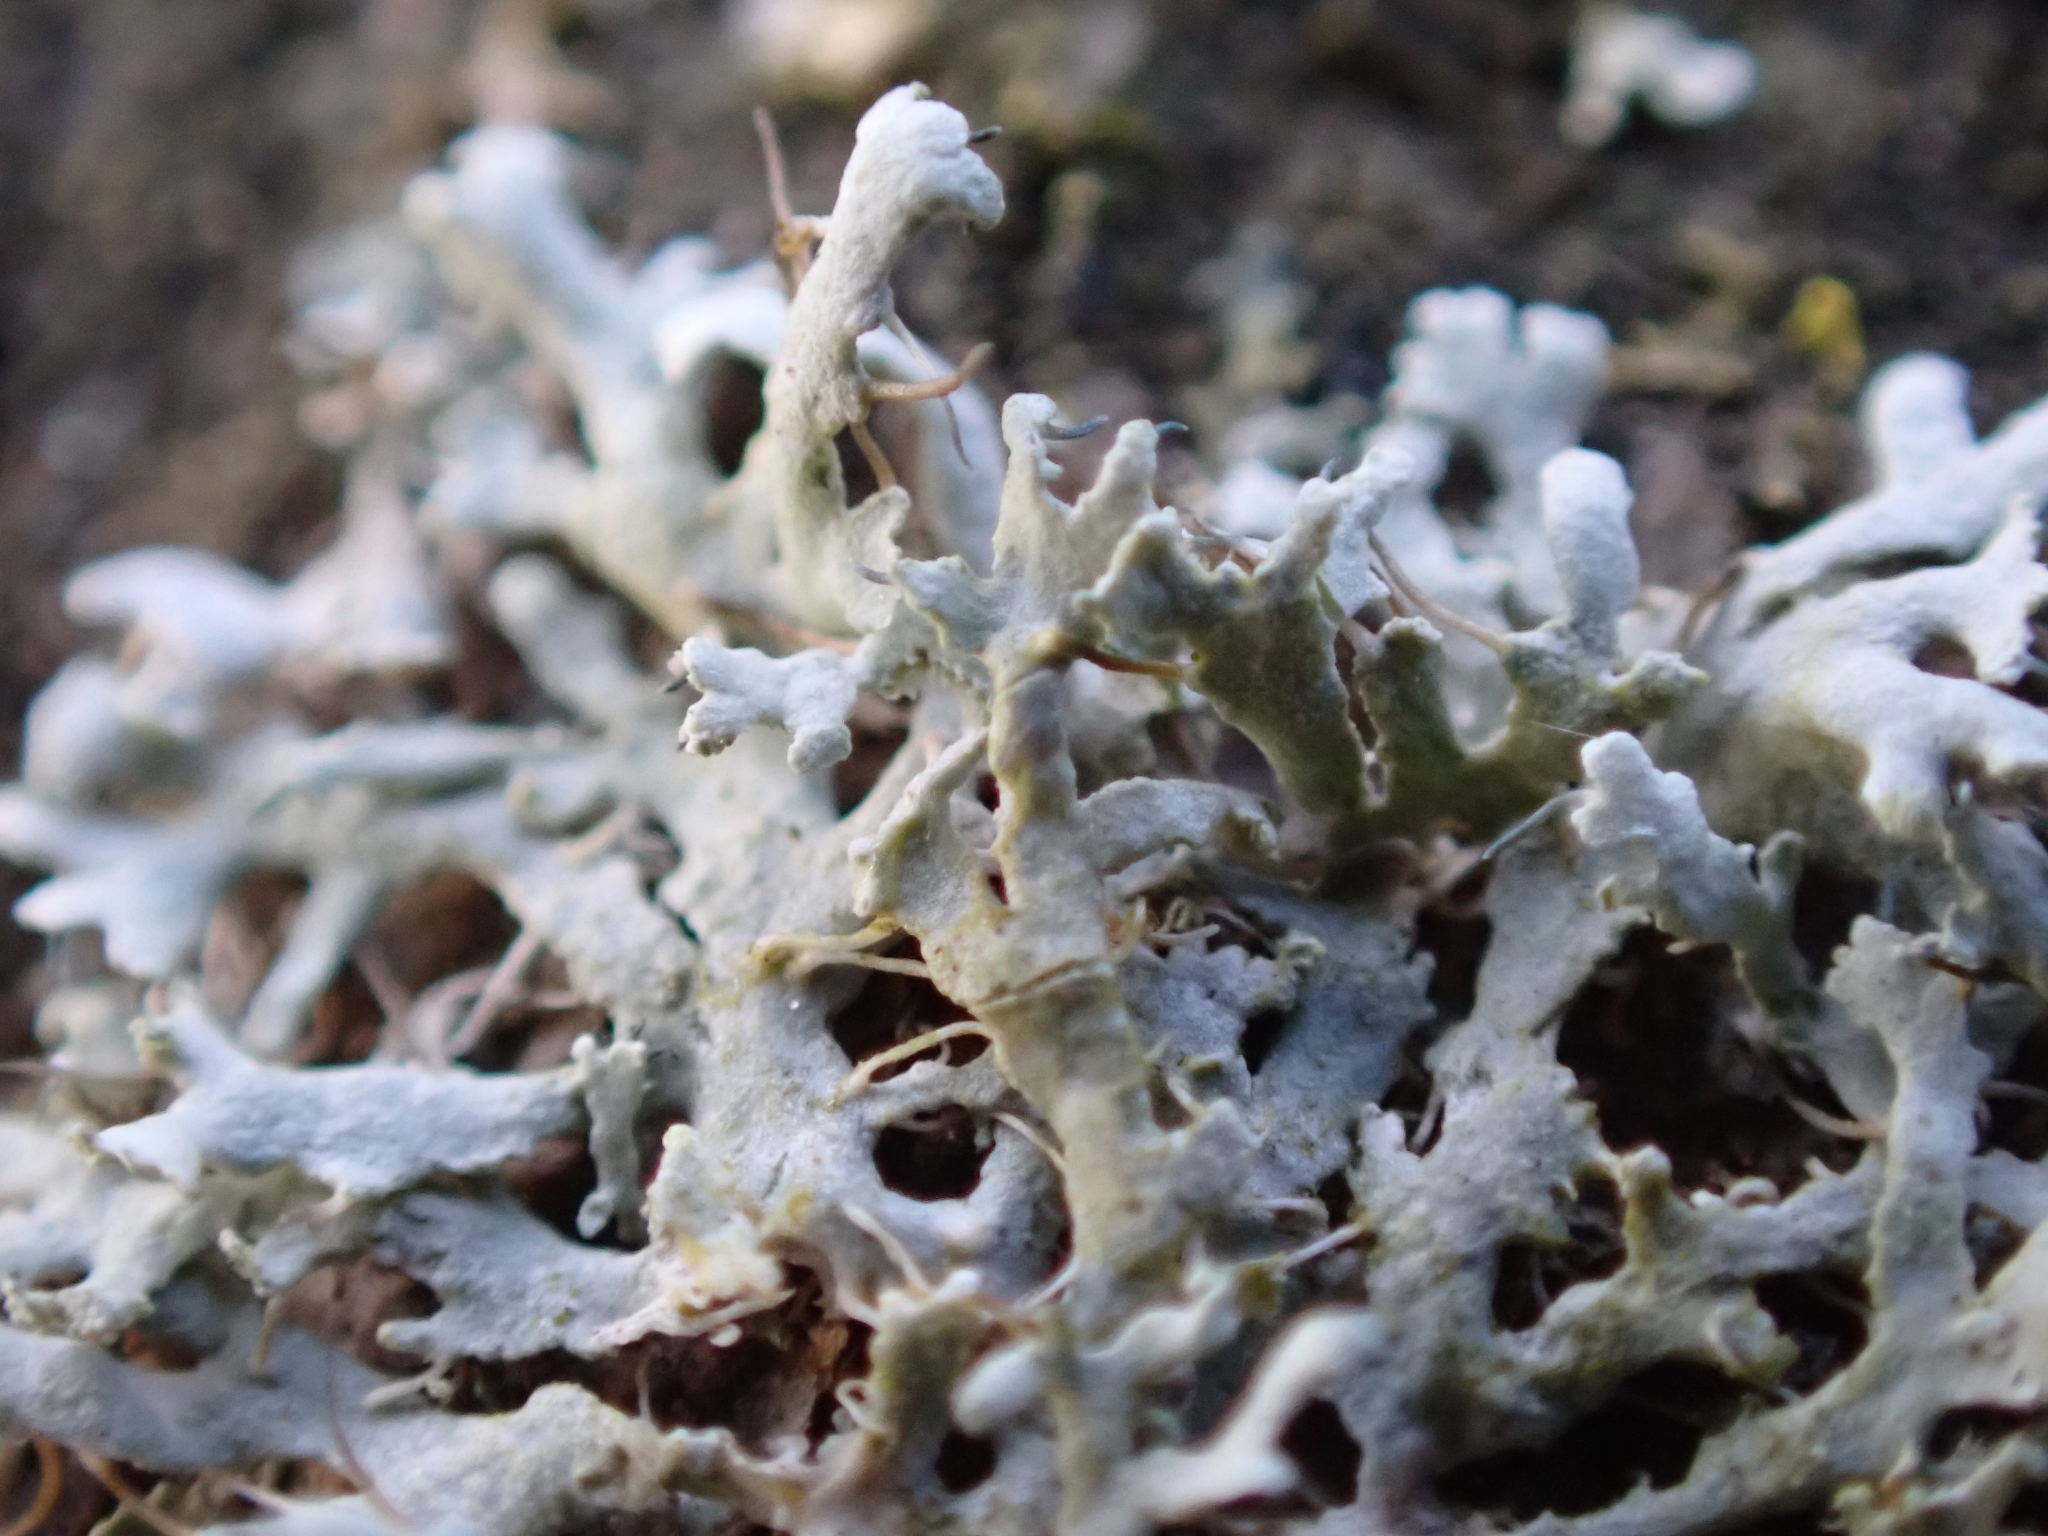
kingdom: Fungi
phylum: Ascomycota
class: Lecanoromycetes
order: Caliciales
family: Physciaceae
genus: Physcia
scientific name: Physcia tenella
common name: Fringed rosette lichen
